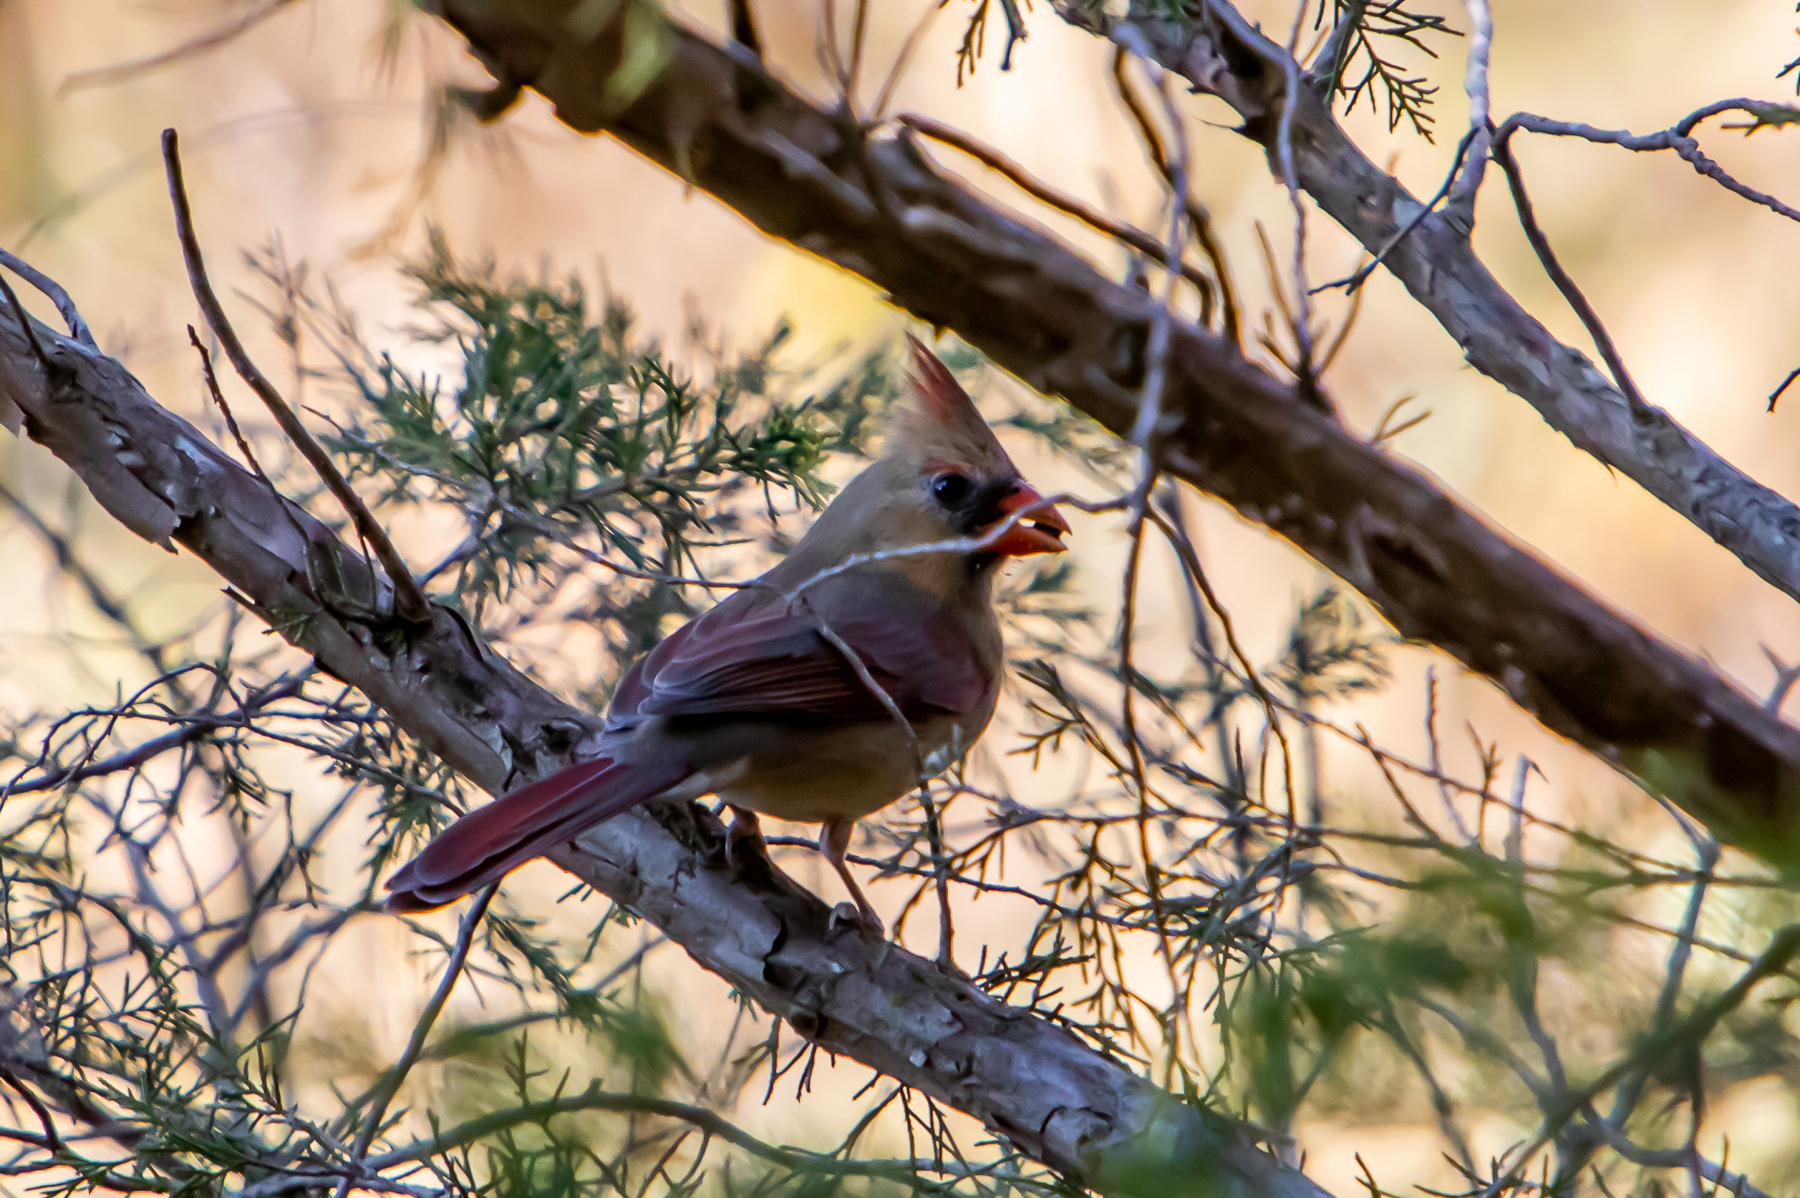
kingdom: Animalia
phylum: Chordata
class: Aves
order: Passeriformes
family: Cardinalidae
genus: Cardinalis
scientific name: Cardinalis cardinalis
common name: Northern cardinal
